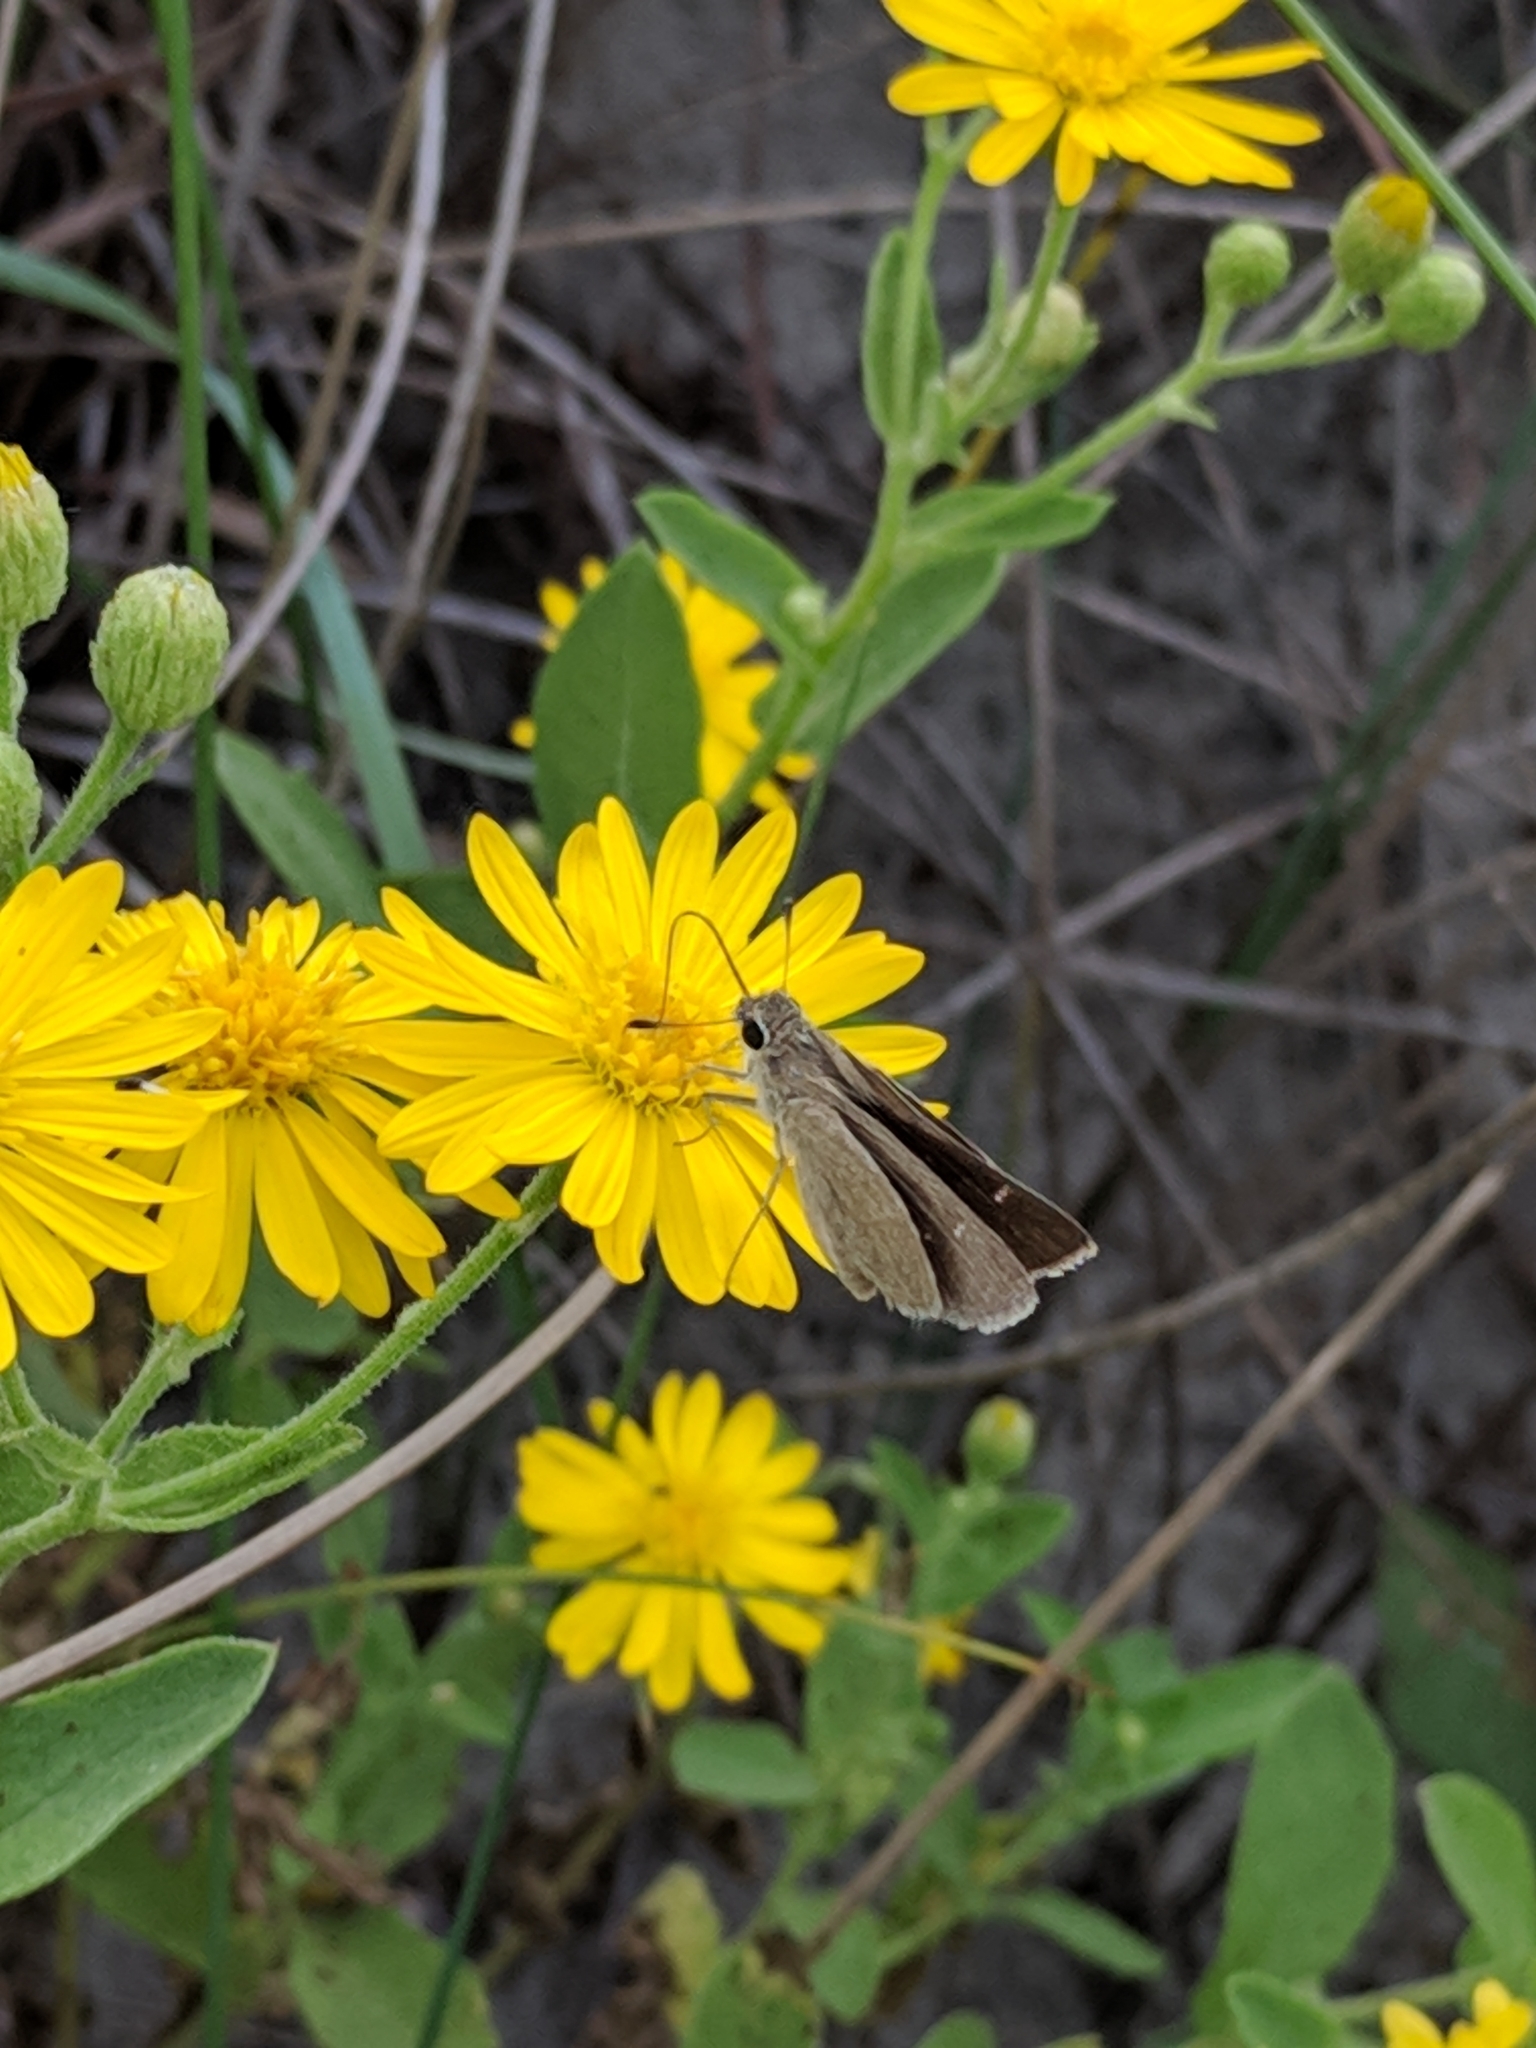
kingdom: Animalia
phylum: Arthropoda
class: Insecta
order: Lepidoptera
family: Hesperiidae
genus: Lerodea
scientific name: Lerodea eufala
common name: Eufala skipper
